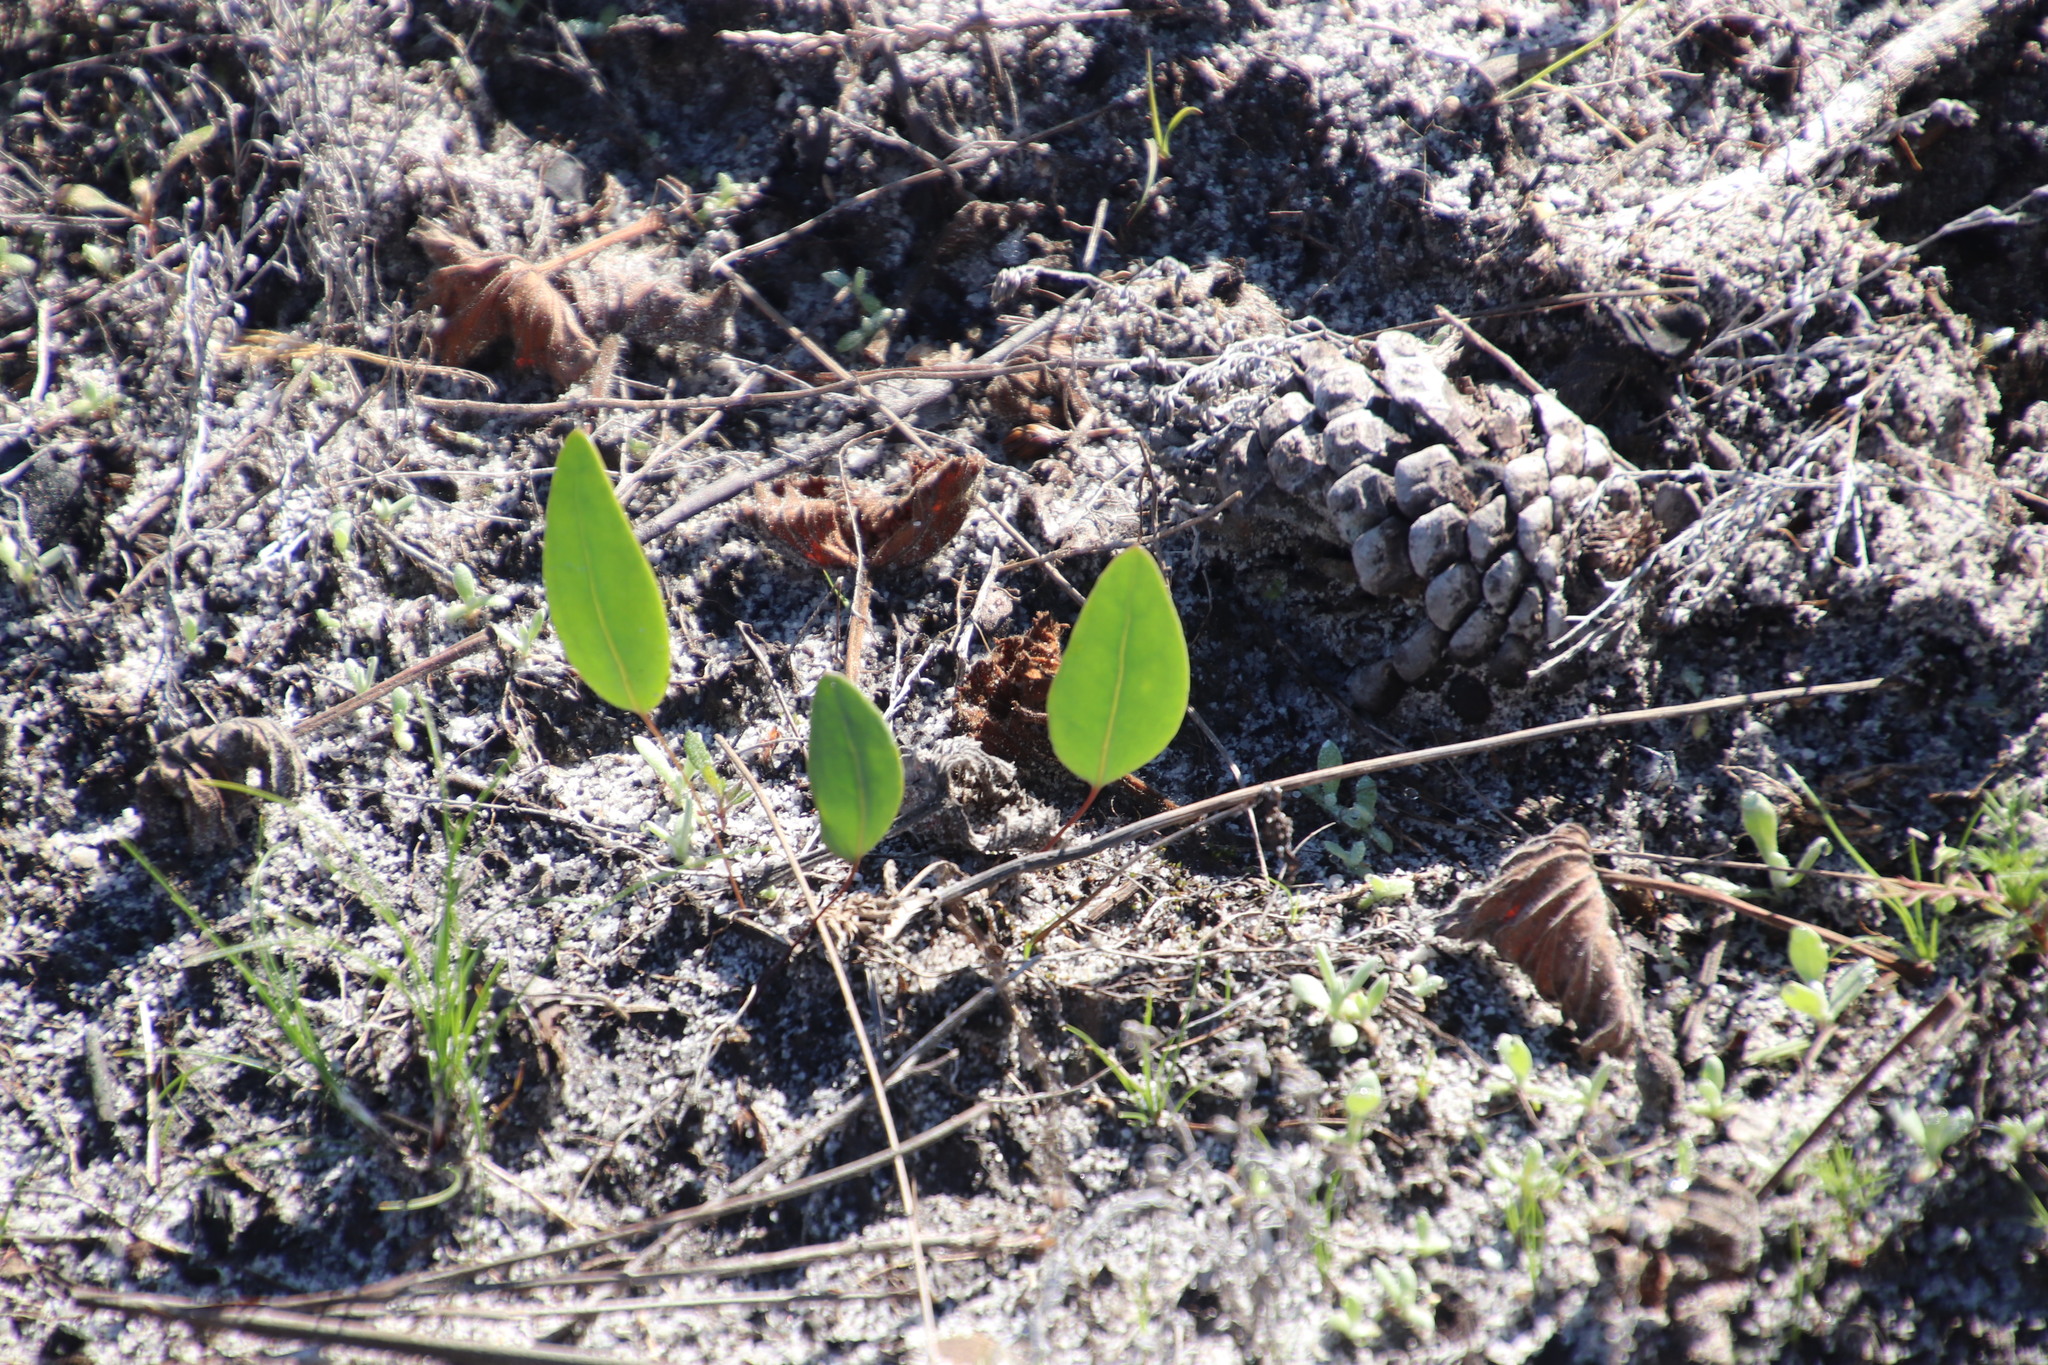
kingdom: Plantae
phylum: Tracheophyta
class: Magnoliopsida
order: Asterales
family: Asteraceae
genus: Othonna
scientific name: Othonna bulbosa
